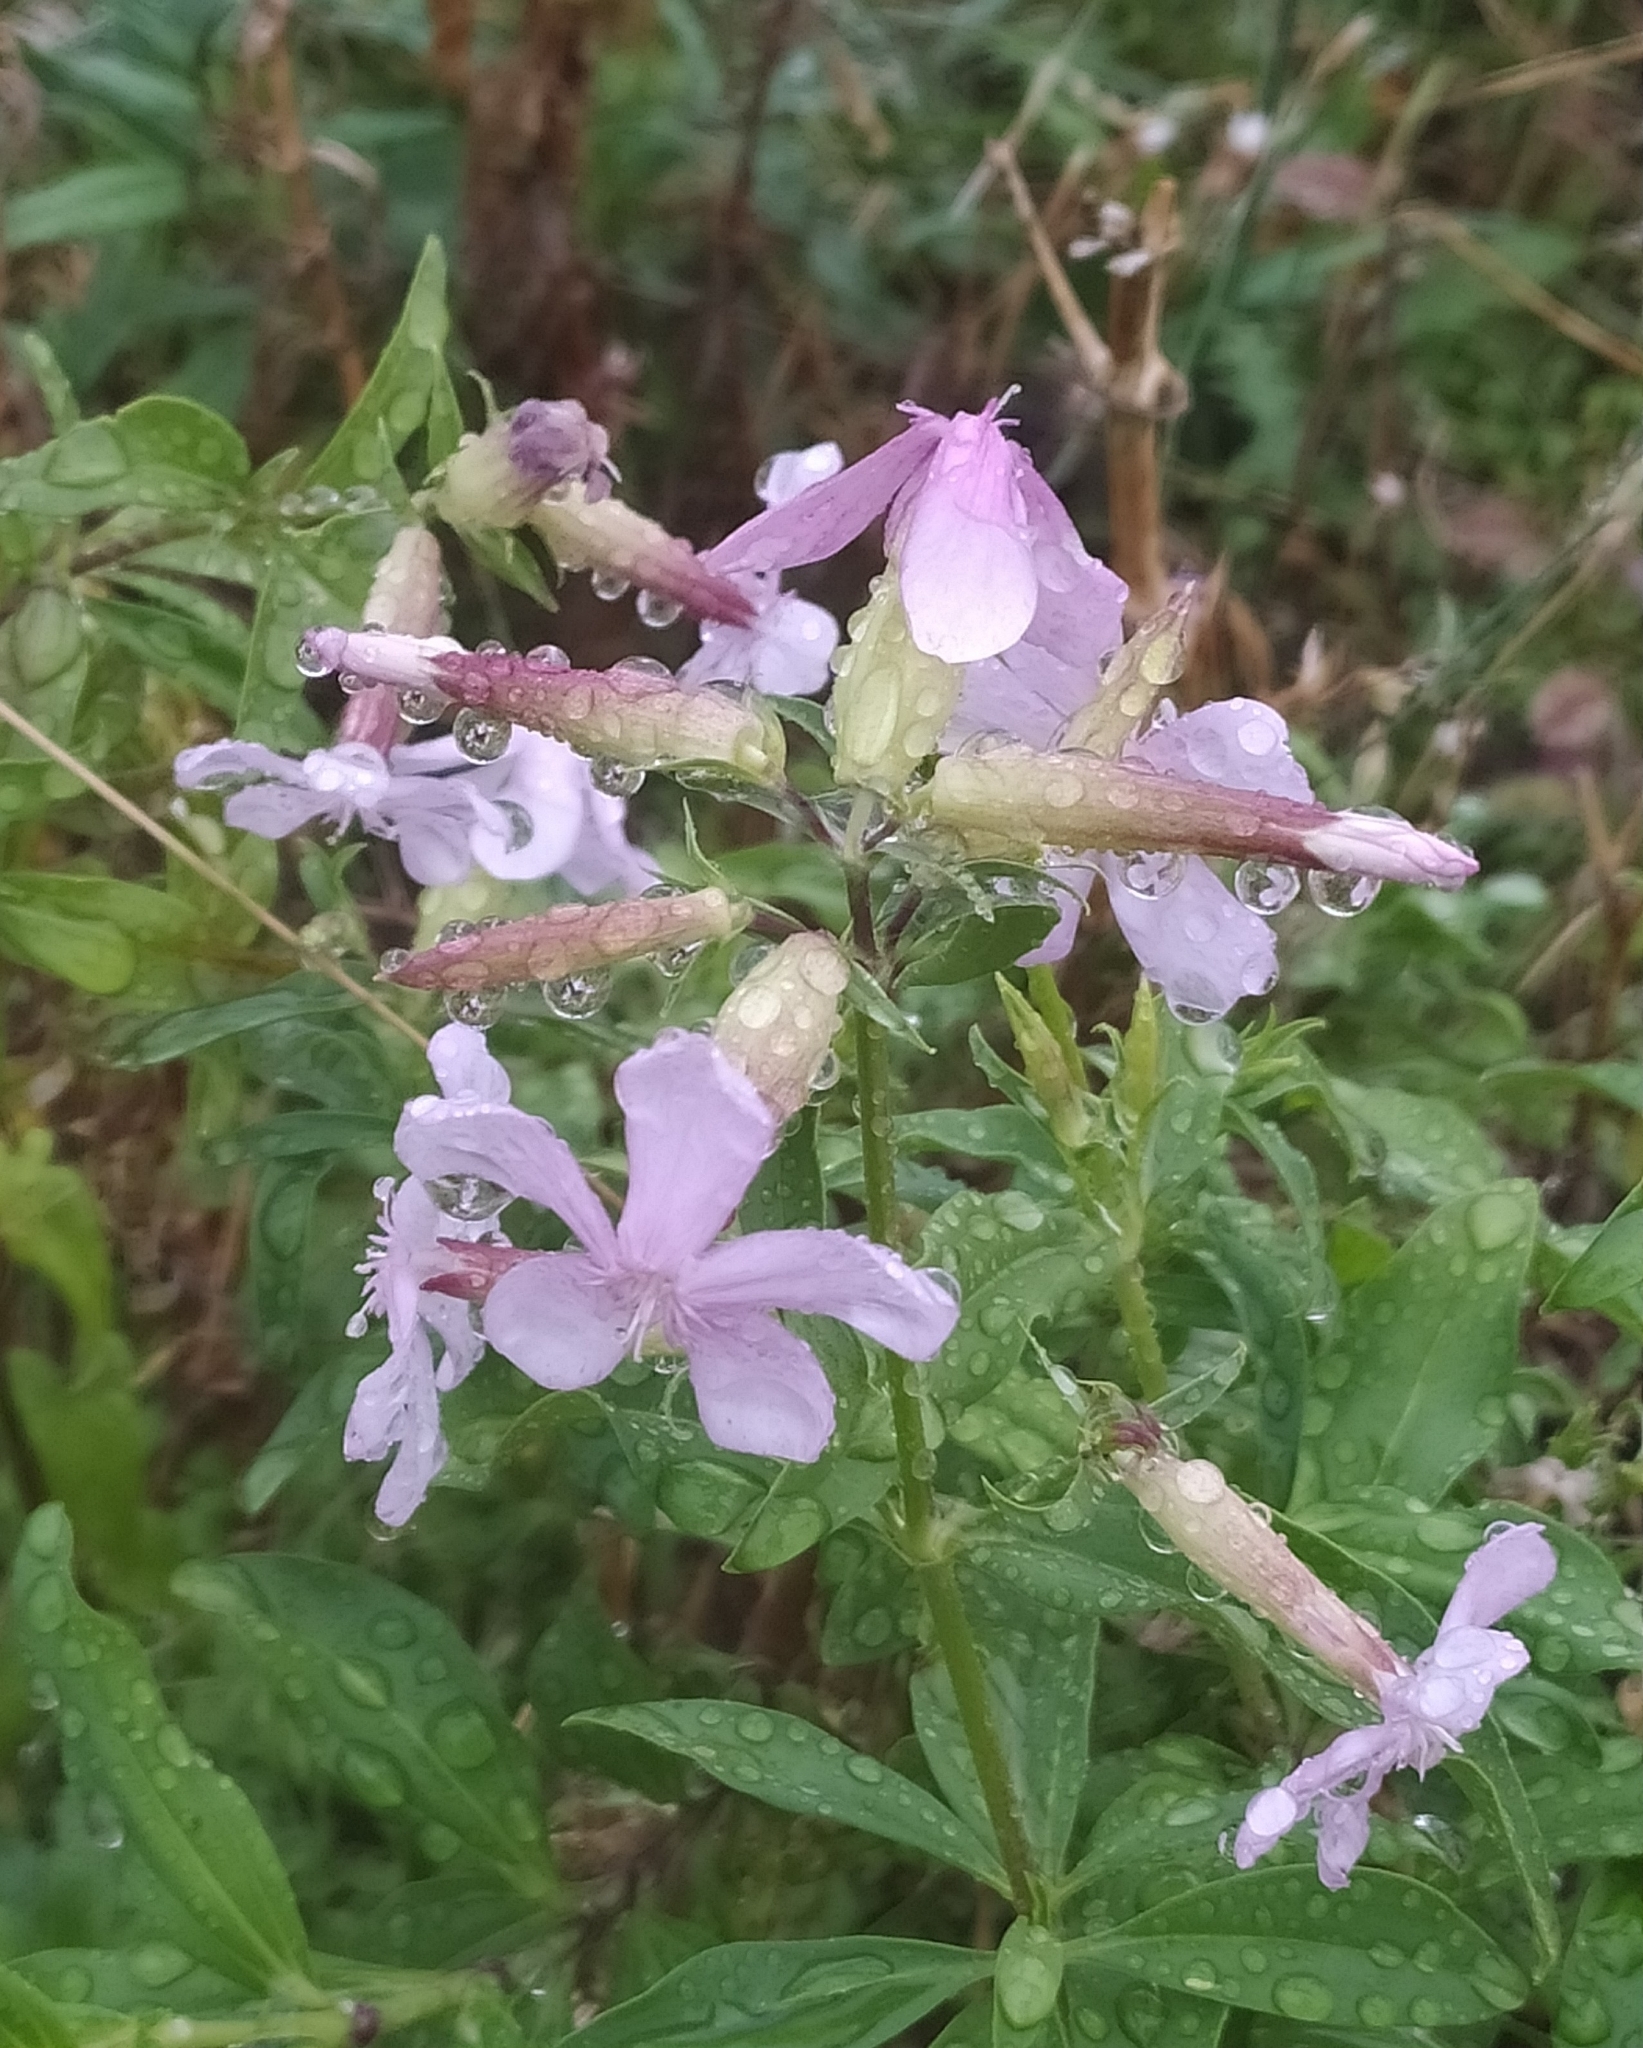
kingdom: Plantae
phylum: Tracheophyta
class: Magnoliopsida
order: Caryophyllales
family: Caryophyllaceae
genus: Saponaria
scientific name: Saponaria officinalis
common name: Soapwort
